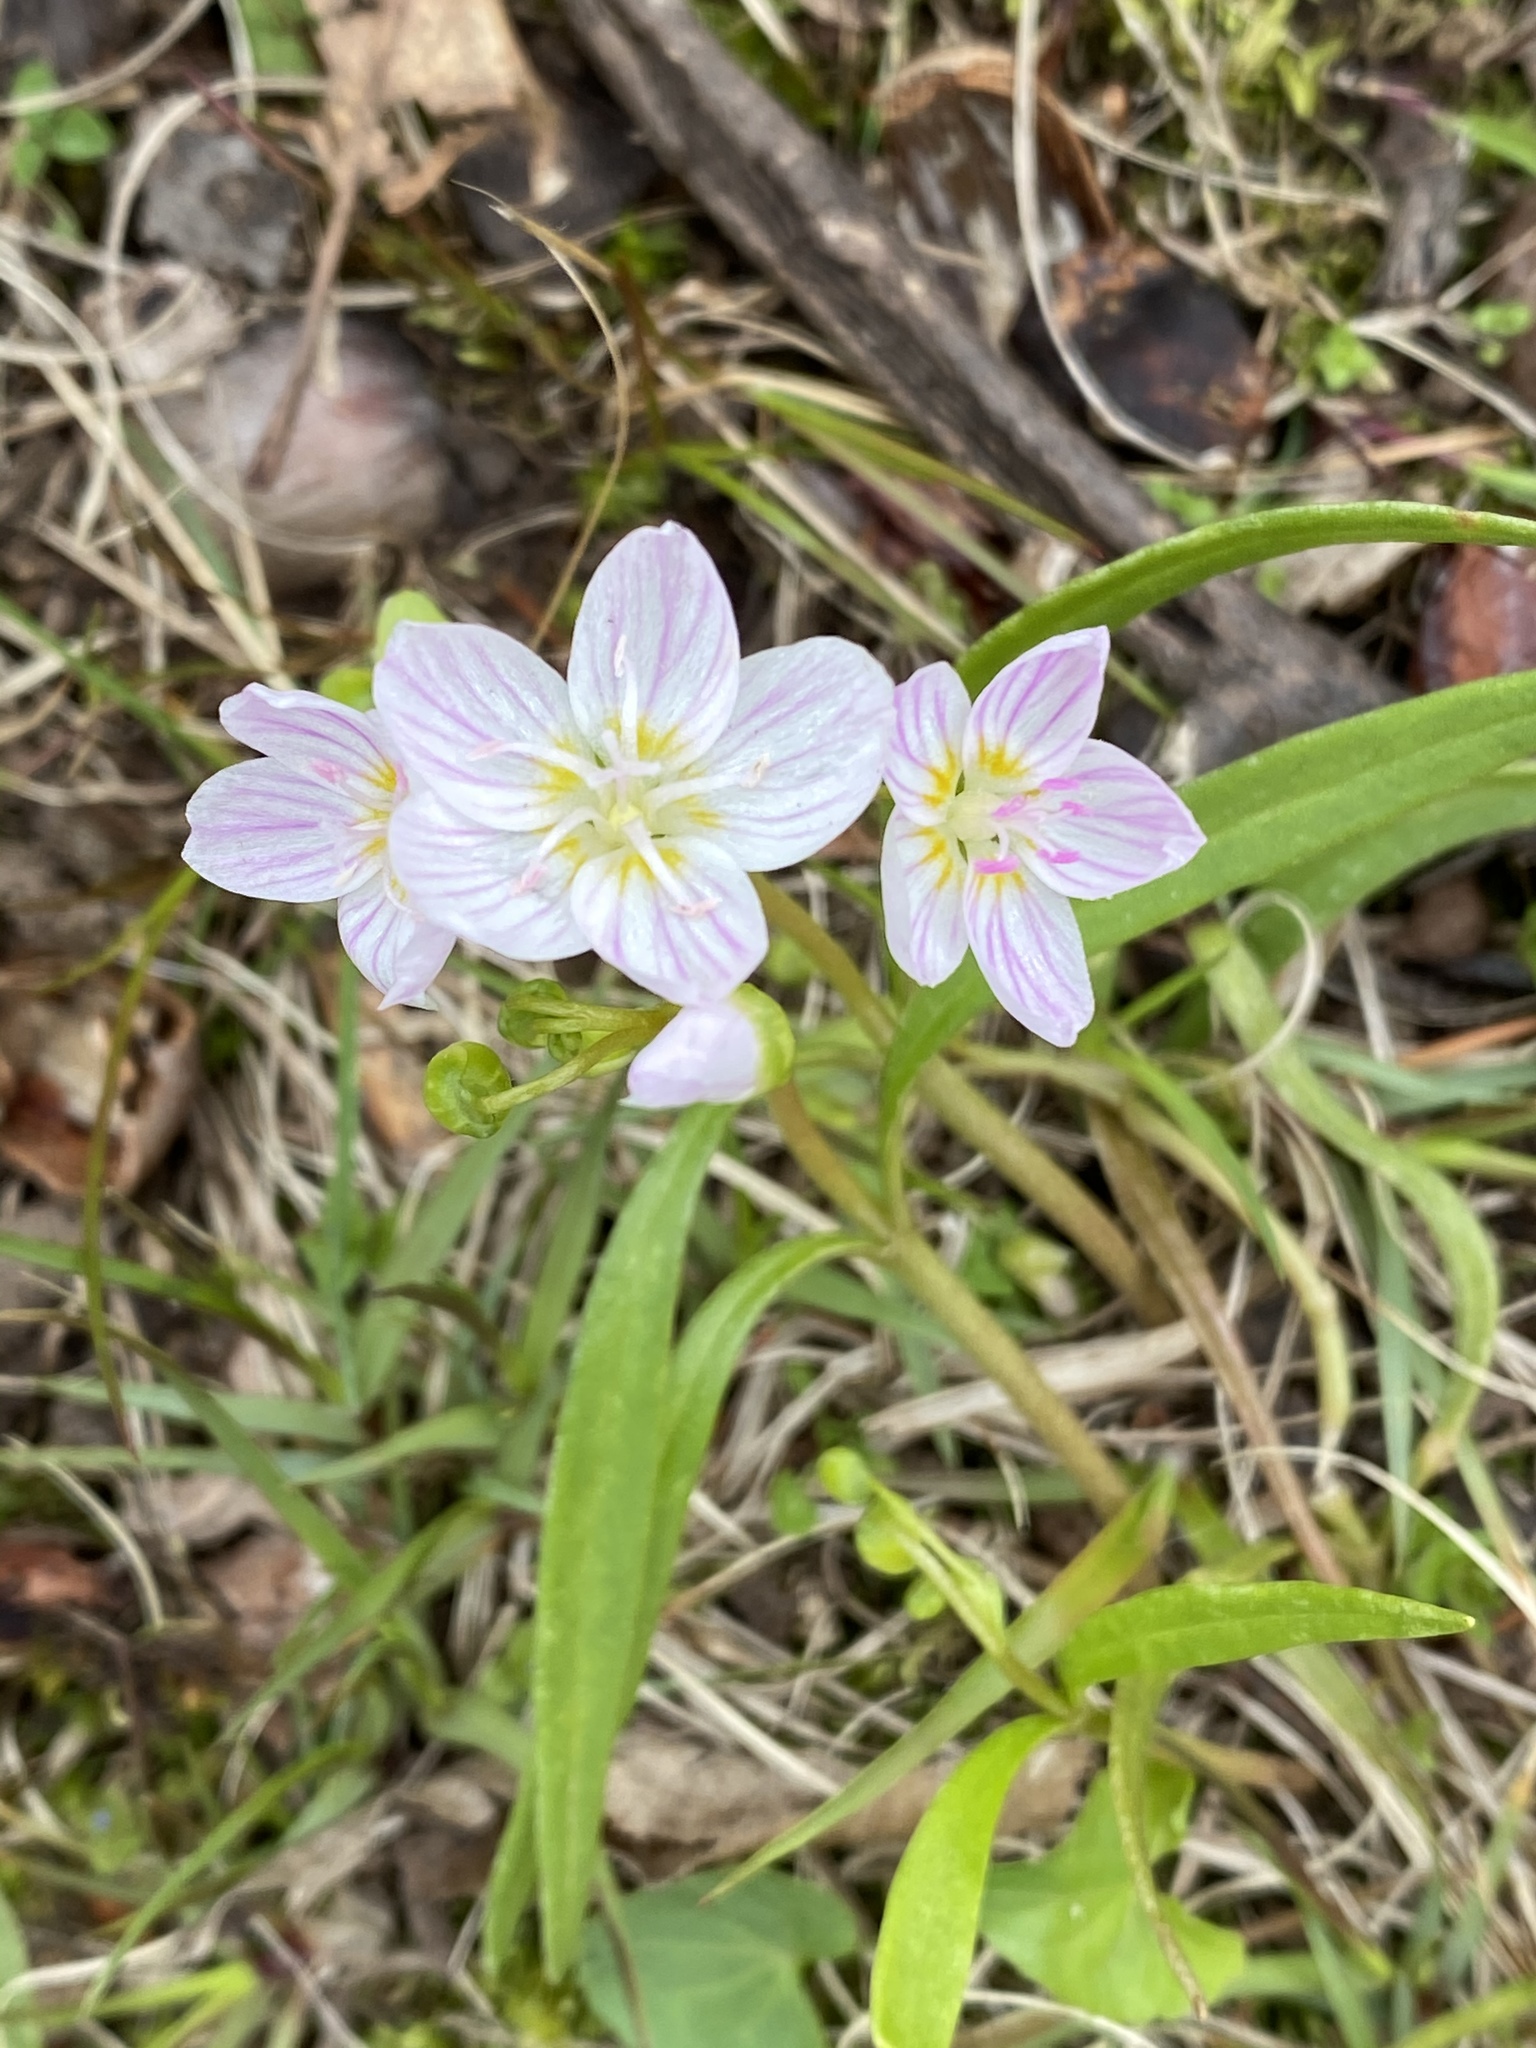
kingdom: Plantae
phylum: Tracheophyta
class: Magnoliopsida
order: Caryophyllales
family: Montiaceae
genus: Claytonia
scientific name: Claytonia virginica
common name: Virginia springbeauty
